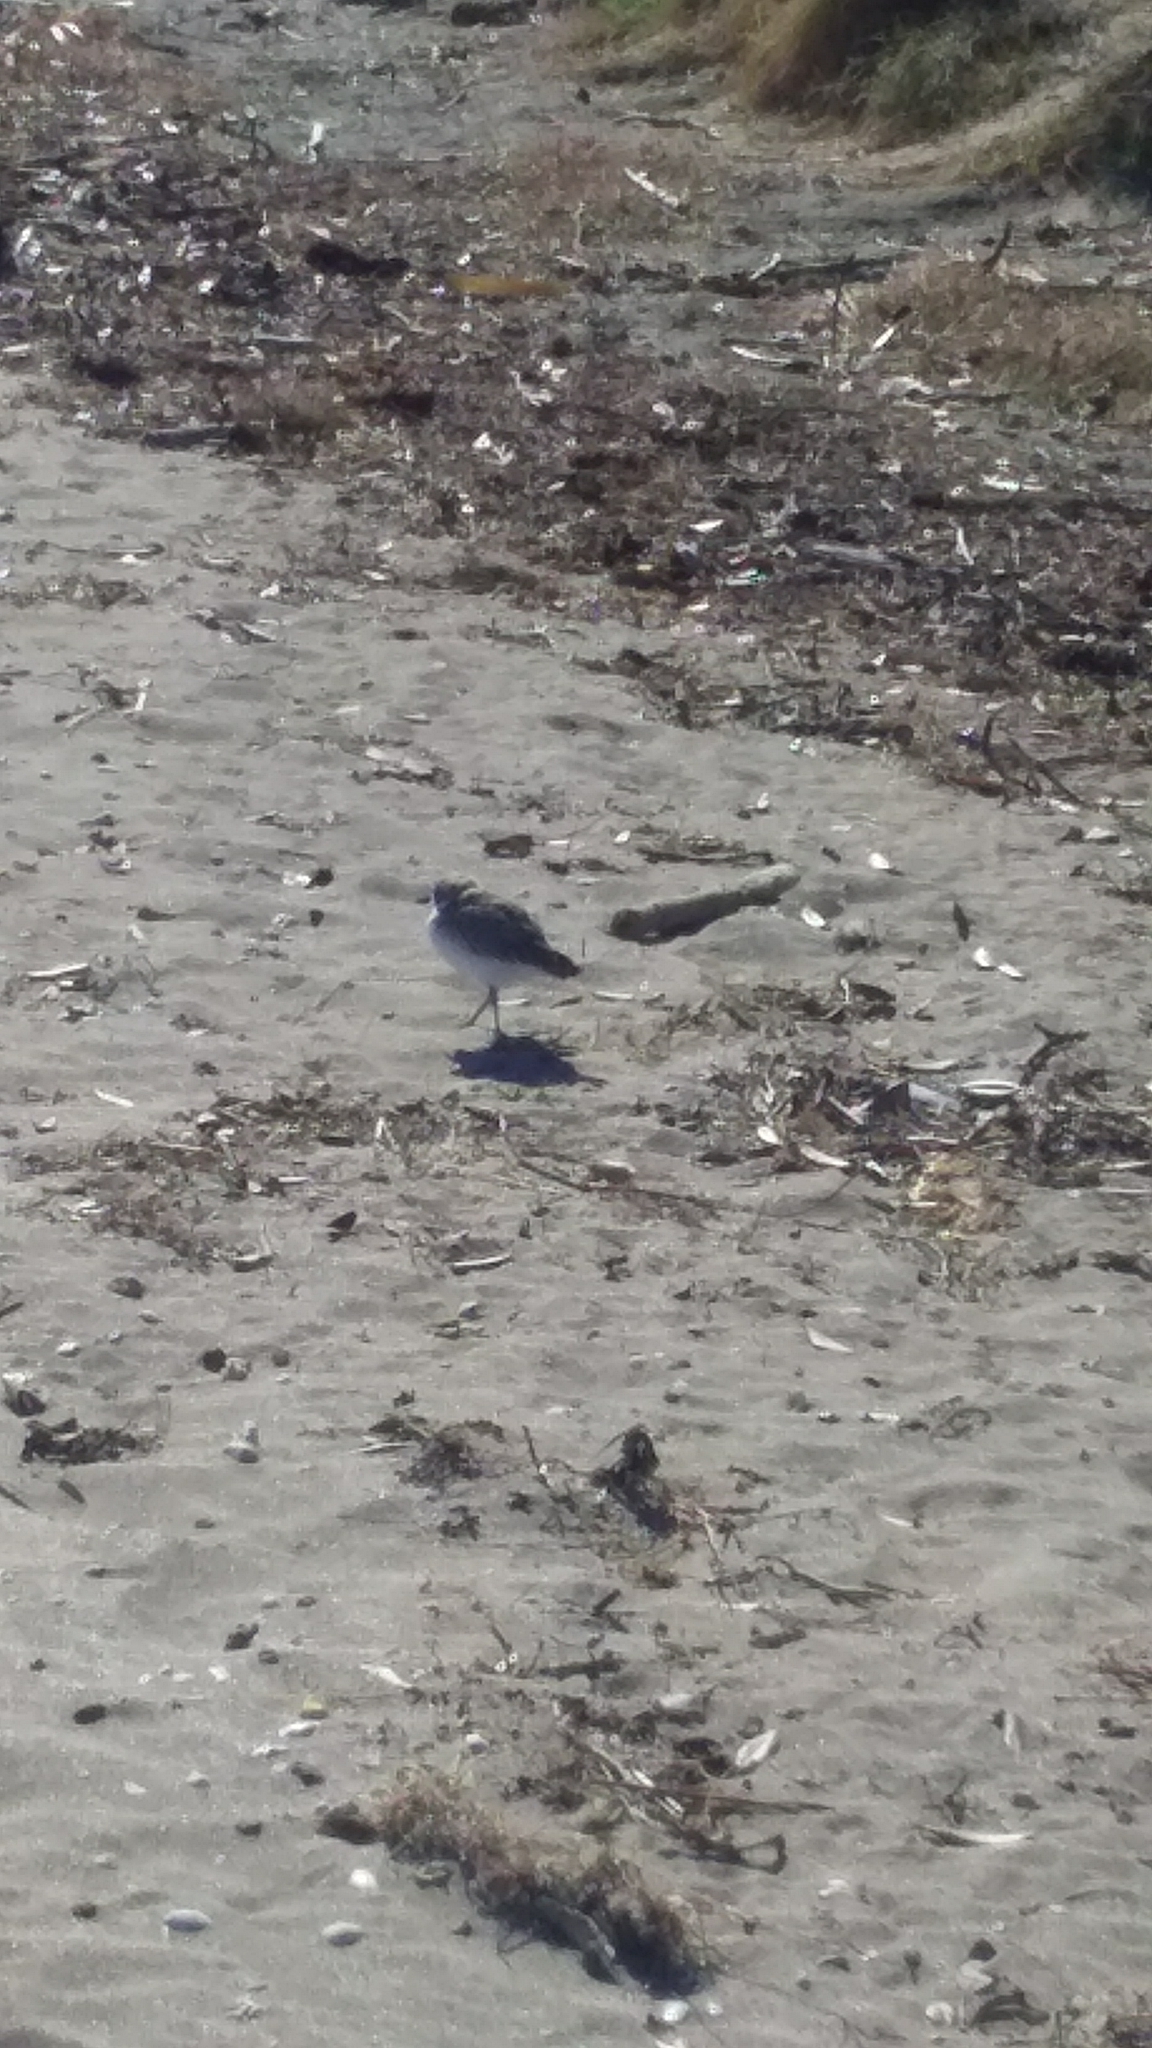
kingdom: Animalia
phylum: Chordata
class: Aves
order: Charadriiformes
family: Charadriidae
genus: Anarhynchus
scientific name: Anarhynchus
